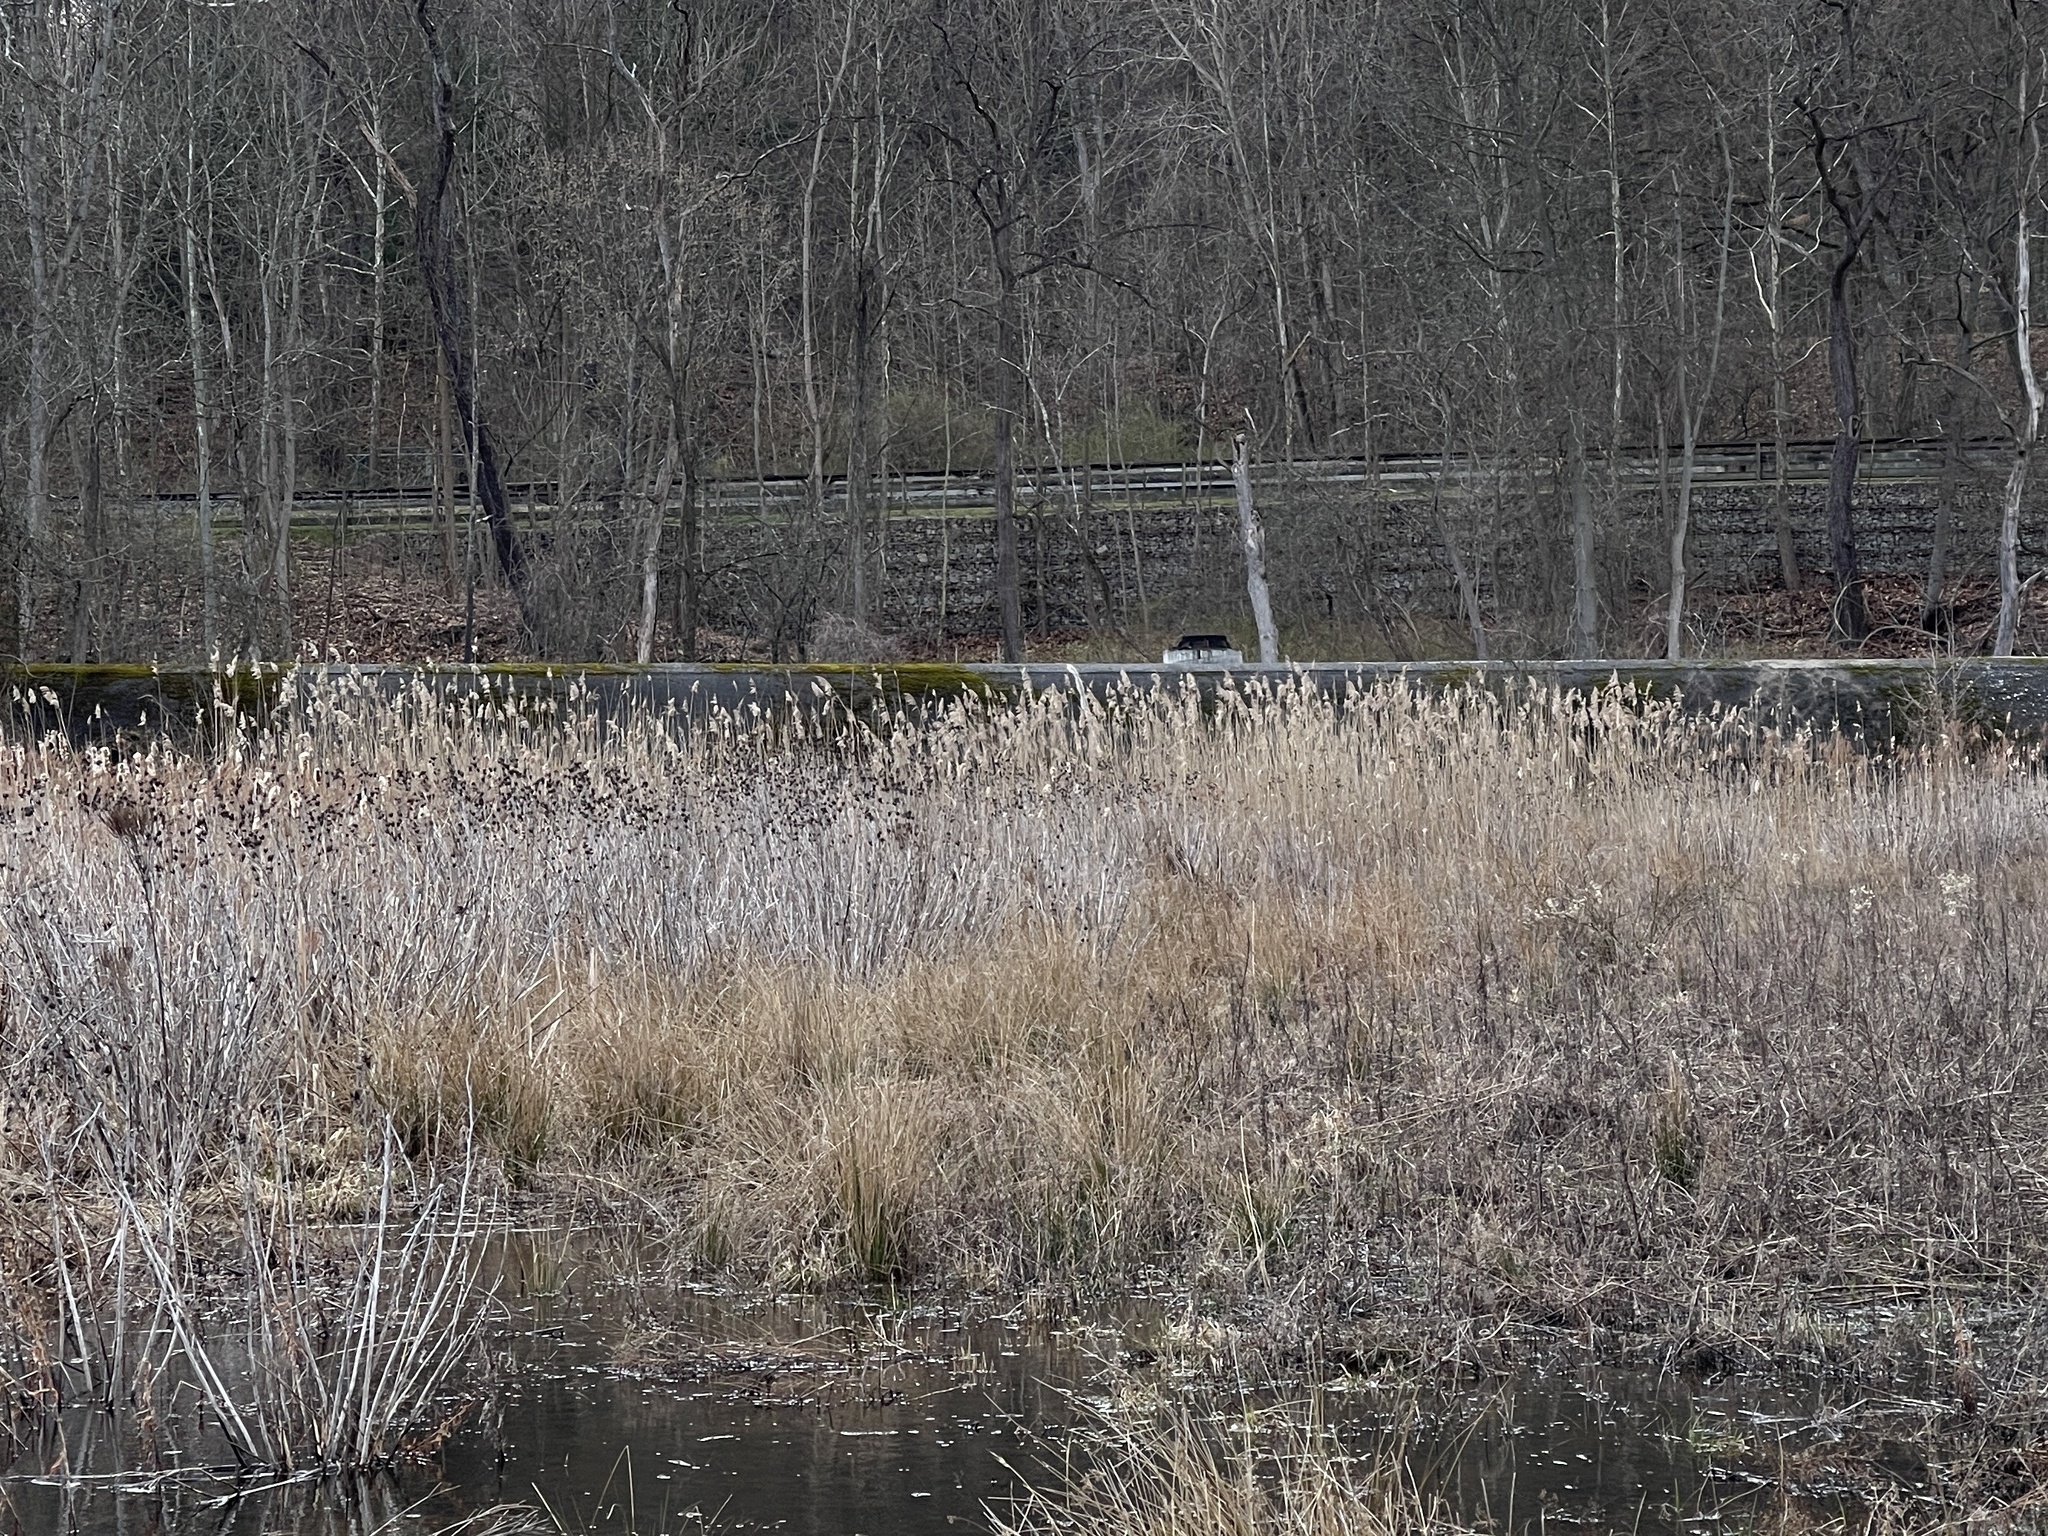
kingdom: Plantae
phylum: Tracheophyta
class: Liliopsida
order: Poales
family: Poaceae
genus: Phragmites
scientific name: Phragmites australis
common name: Common reed
